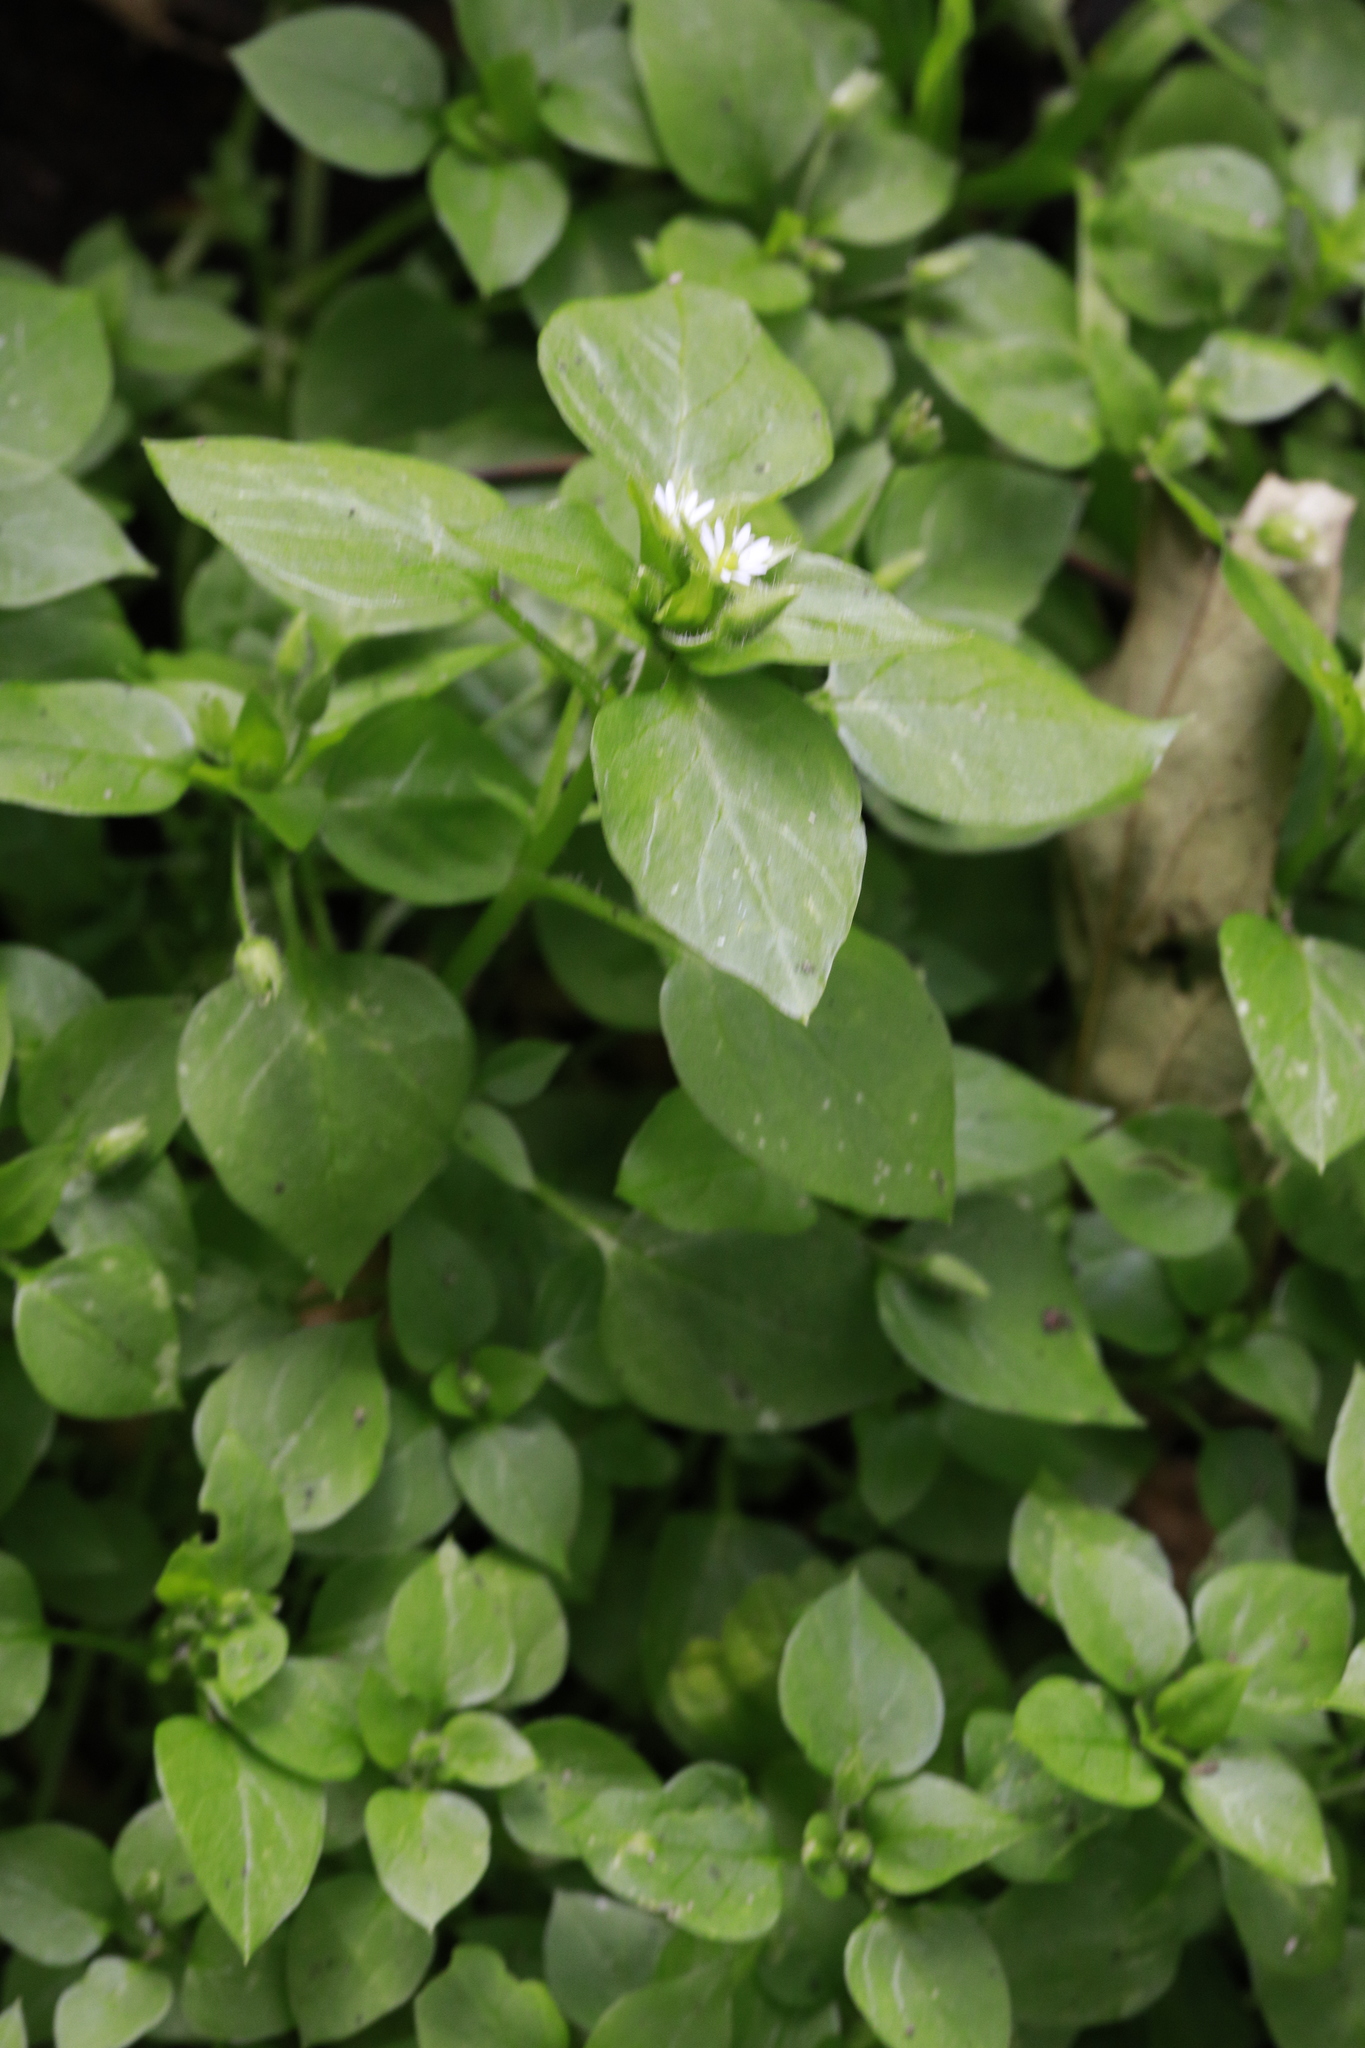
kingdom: Plantae
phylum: Tracheophyta
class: Magnoliopsida
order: Caryophyllales
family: Caryophyllaceae
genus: Stellaria
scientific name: Stellaria media
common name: Common chickweed
